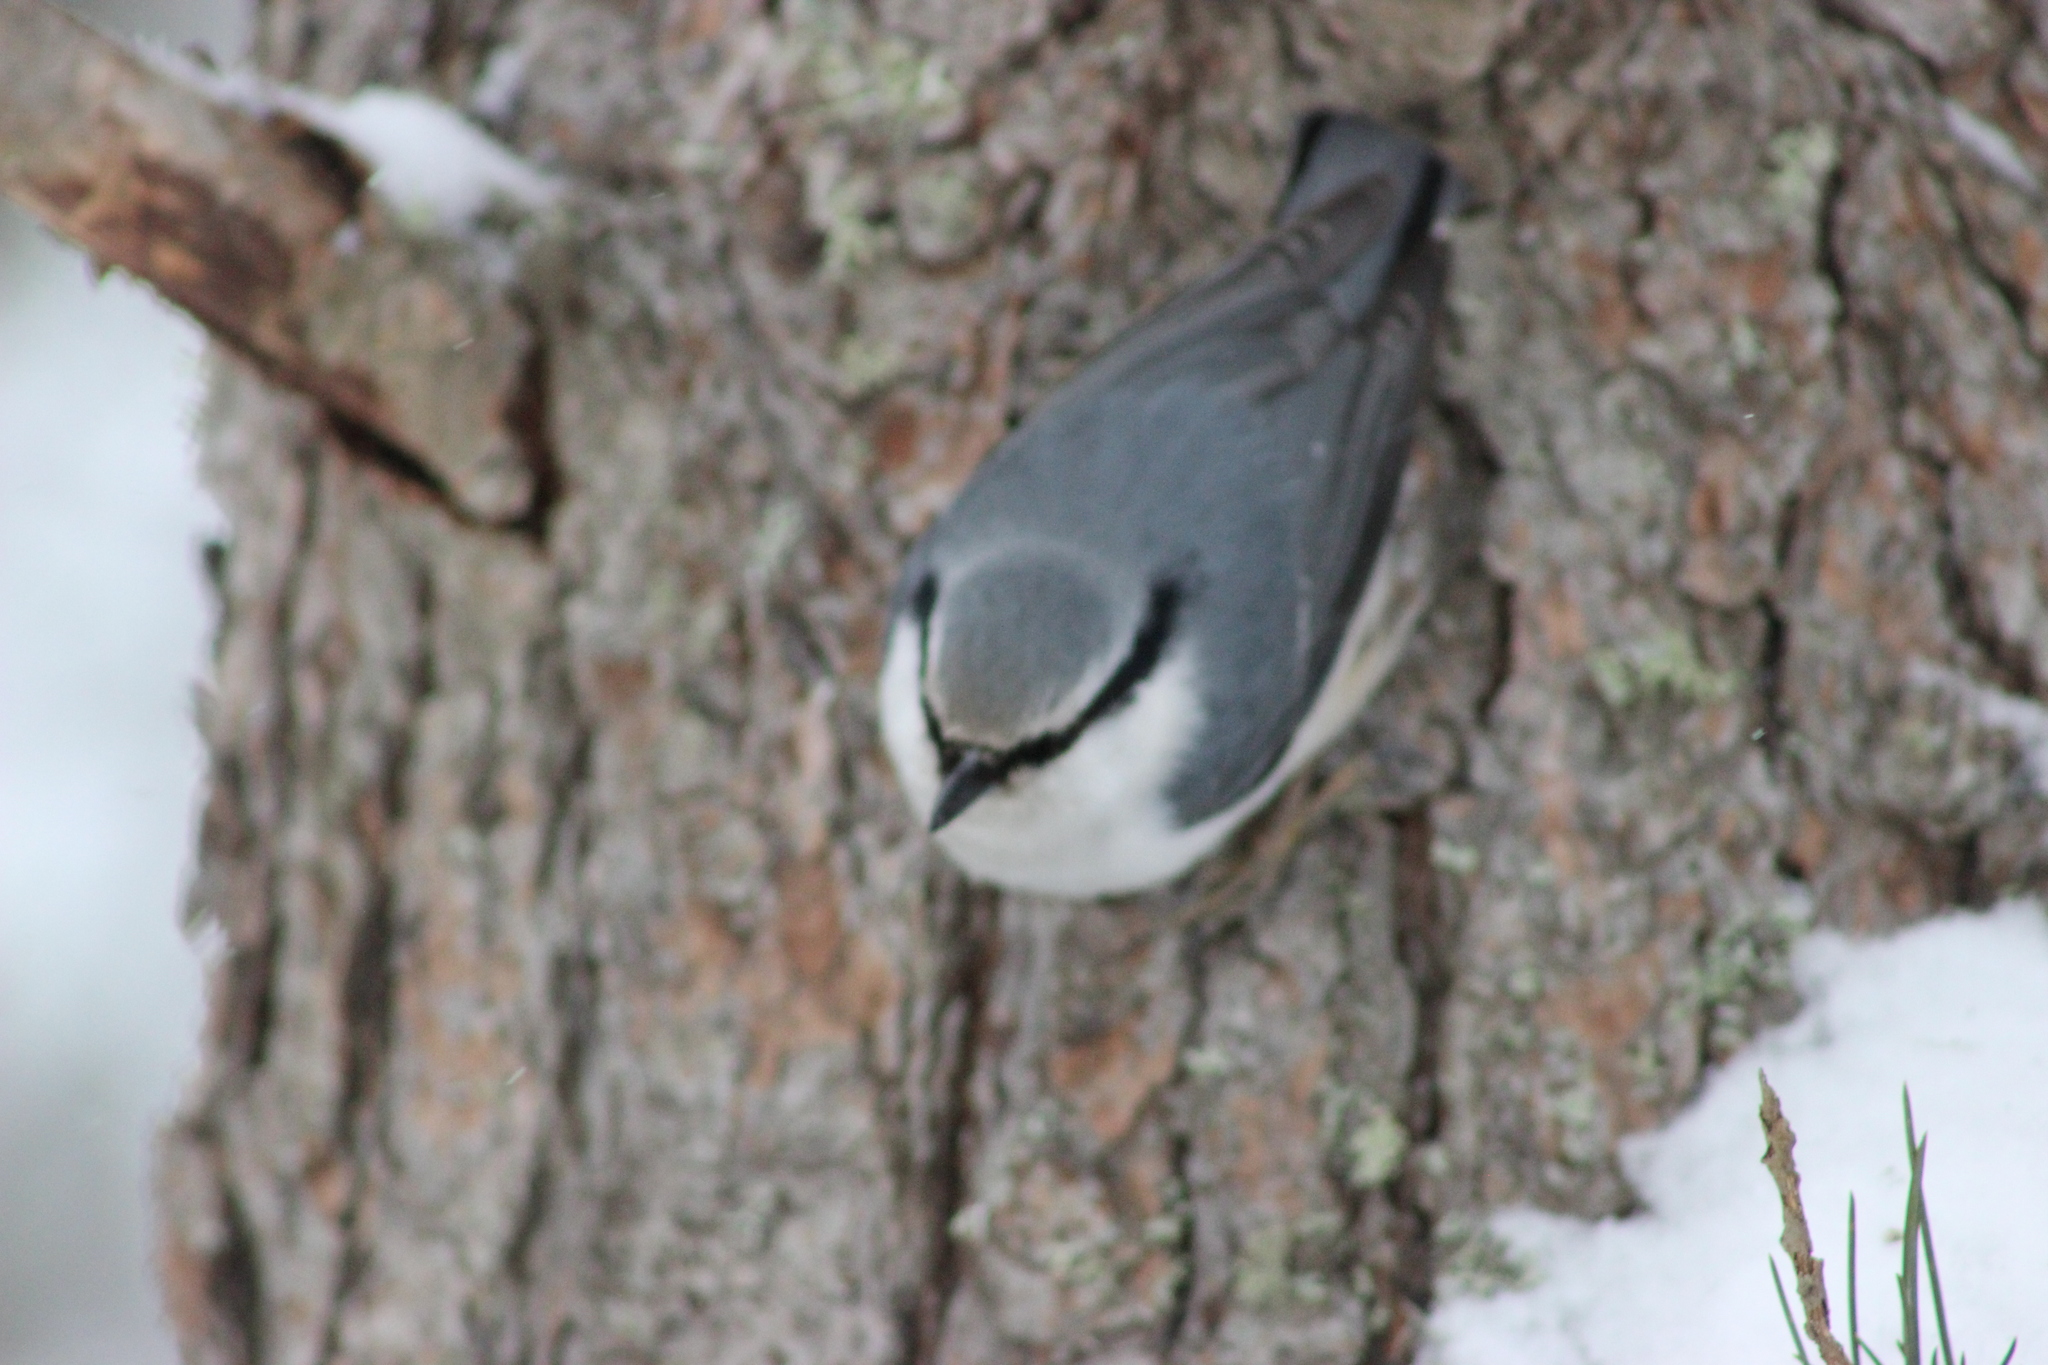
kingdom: Animalia
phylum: Chordata
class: Aves
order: Passeriformes
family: Sittidae
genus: Sitta
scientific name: Sitta europaea
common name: Eurasian nuthatch
